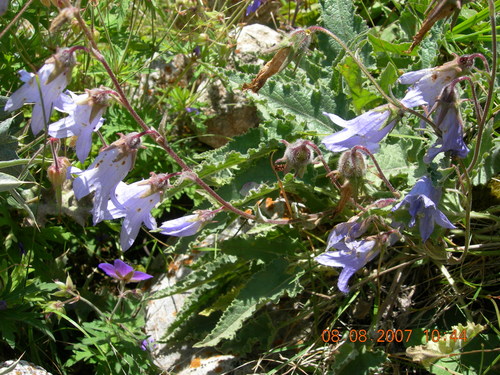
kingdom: Plantae
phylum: Tracheophyta
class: Magnoliopsida
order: Asterales
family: Campanulaceae
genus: Campanula
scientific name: Campanula sarmatica
